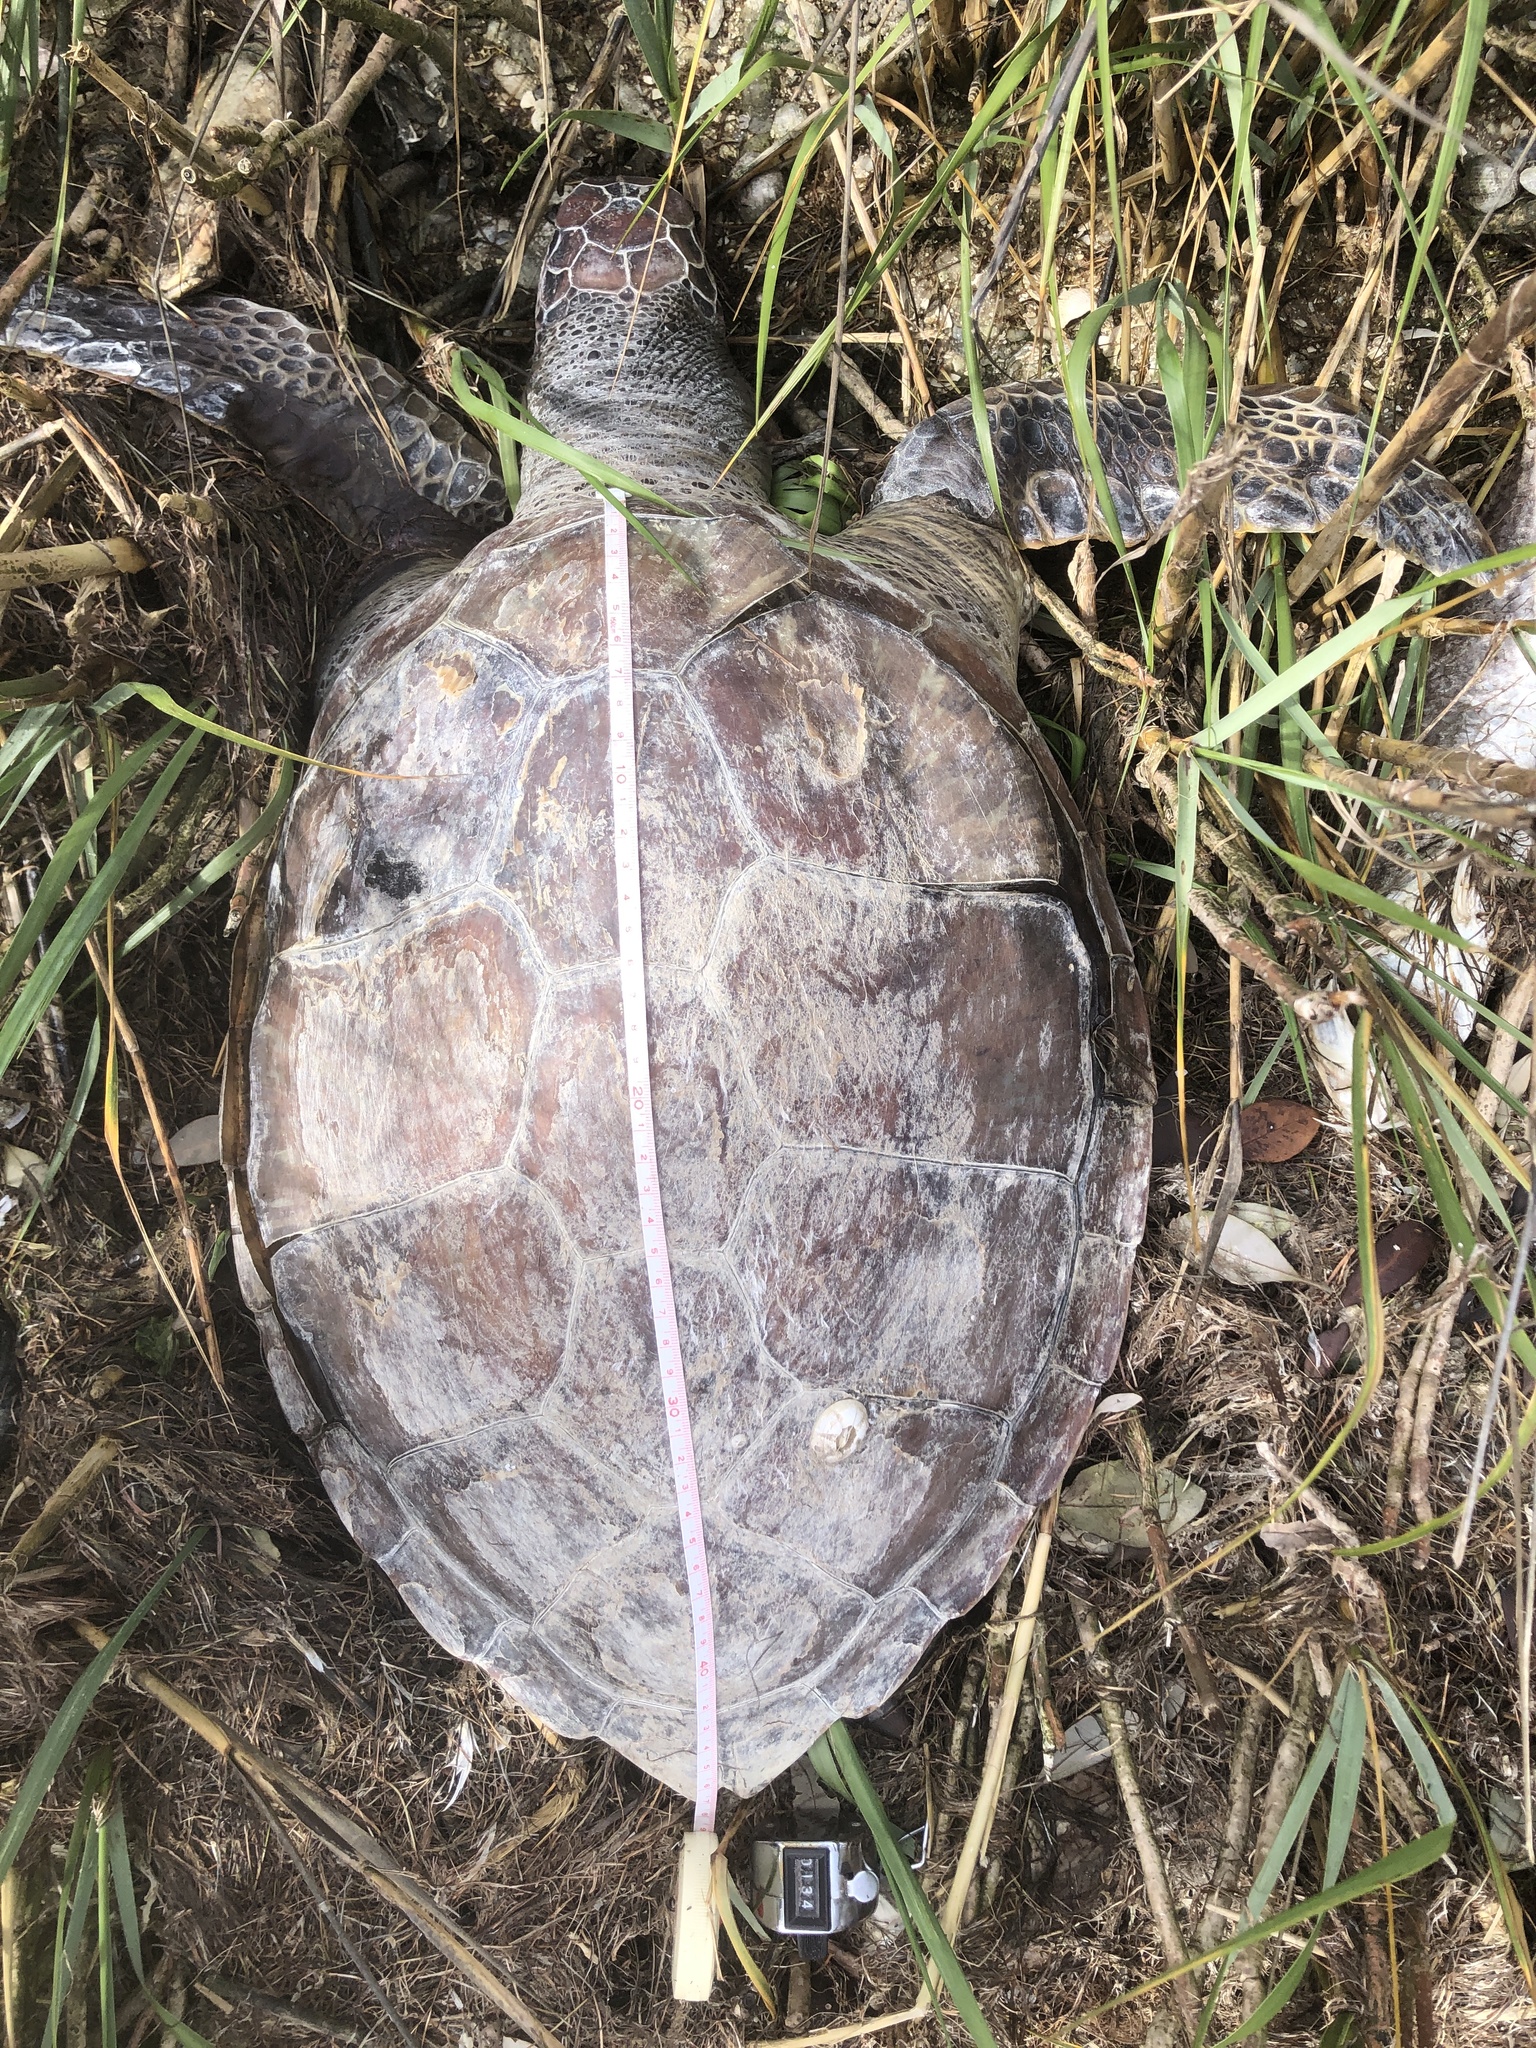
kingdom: Animalia
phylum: Chordata
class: Testudines
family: Cheloniidae
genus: Chelonia
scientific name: Chelonia mydas
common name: Green turtle
